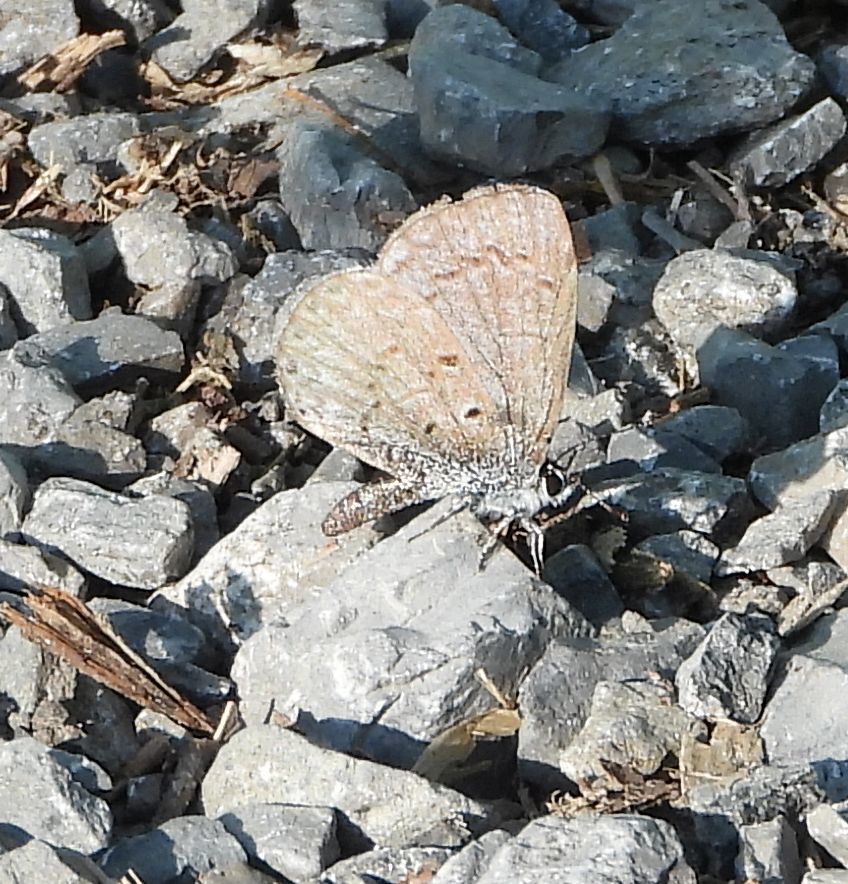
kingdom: Animalia
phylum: Arthropoda
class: Insecta
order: Lepidoptera
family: Lycaenidae
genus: Celastrina
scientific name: Celastrina lucia
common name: Lucia azure
